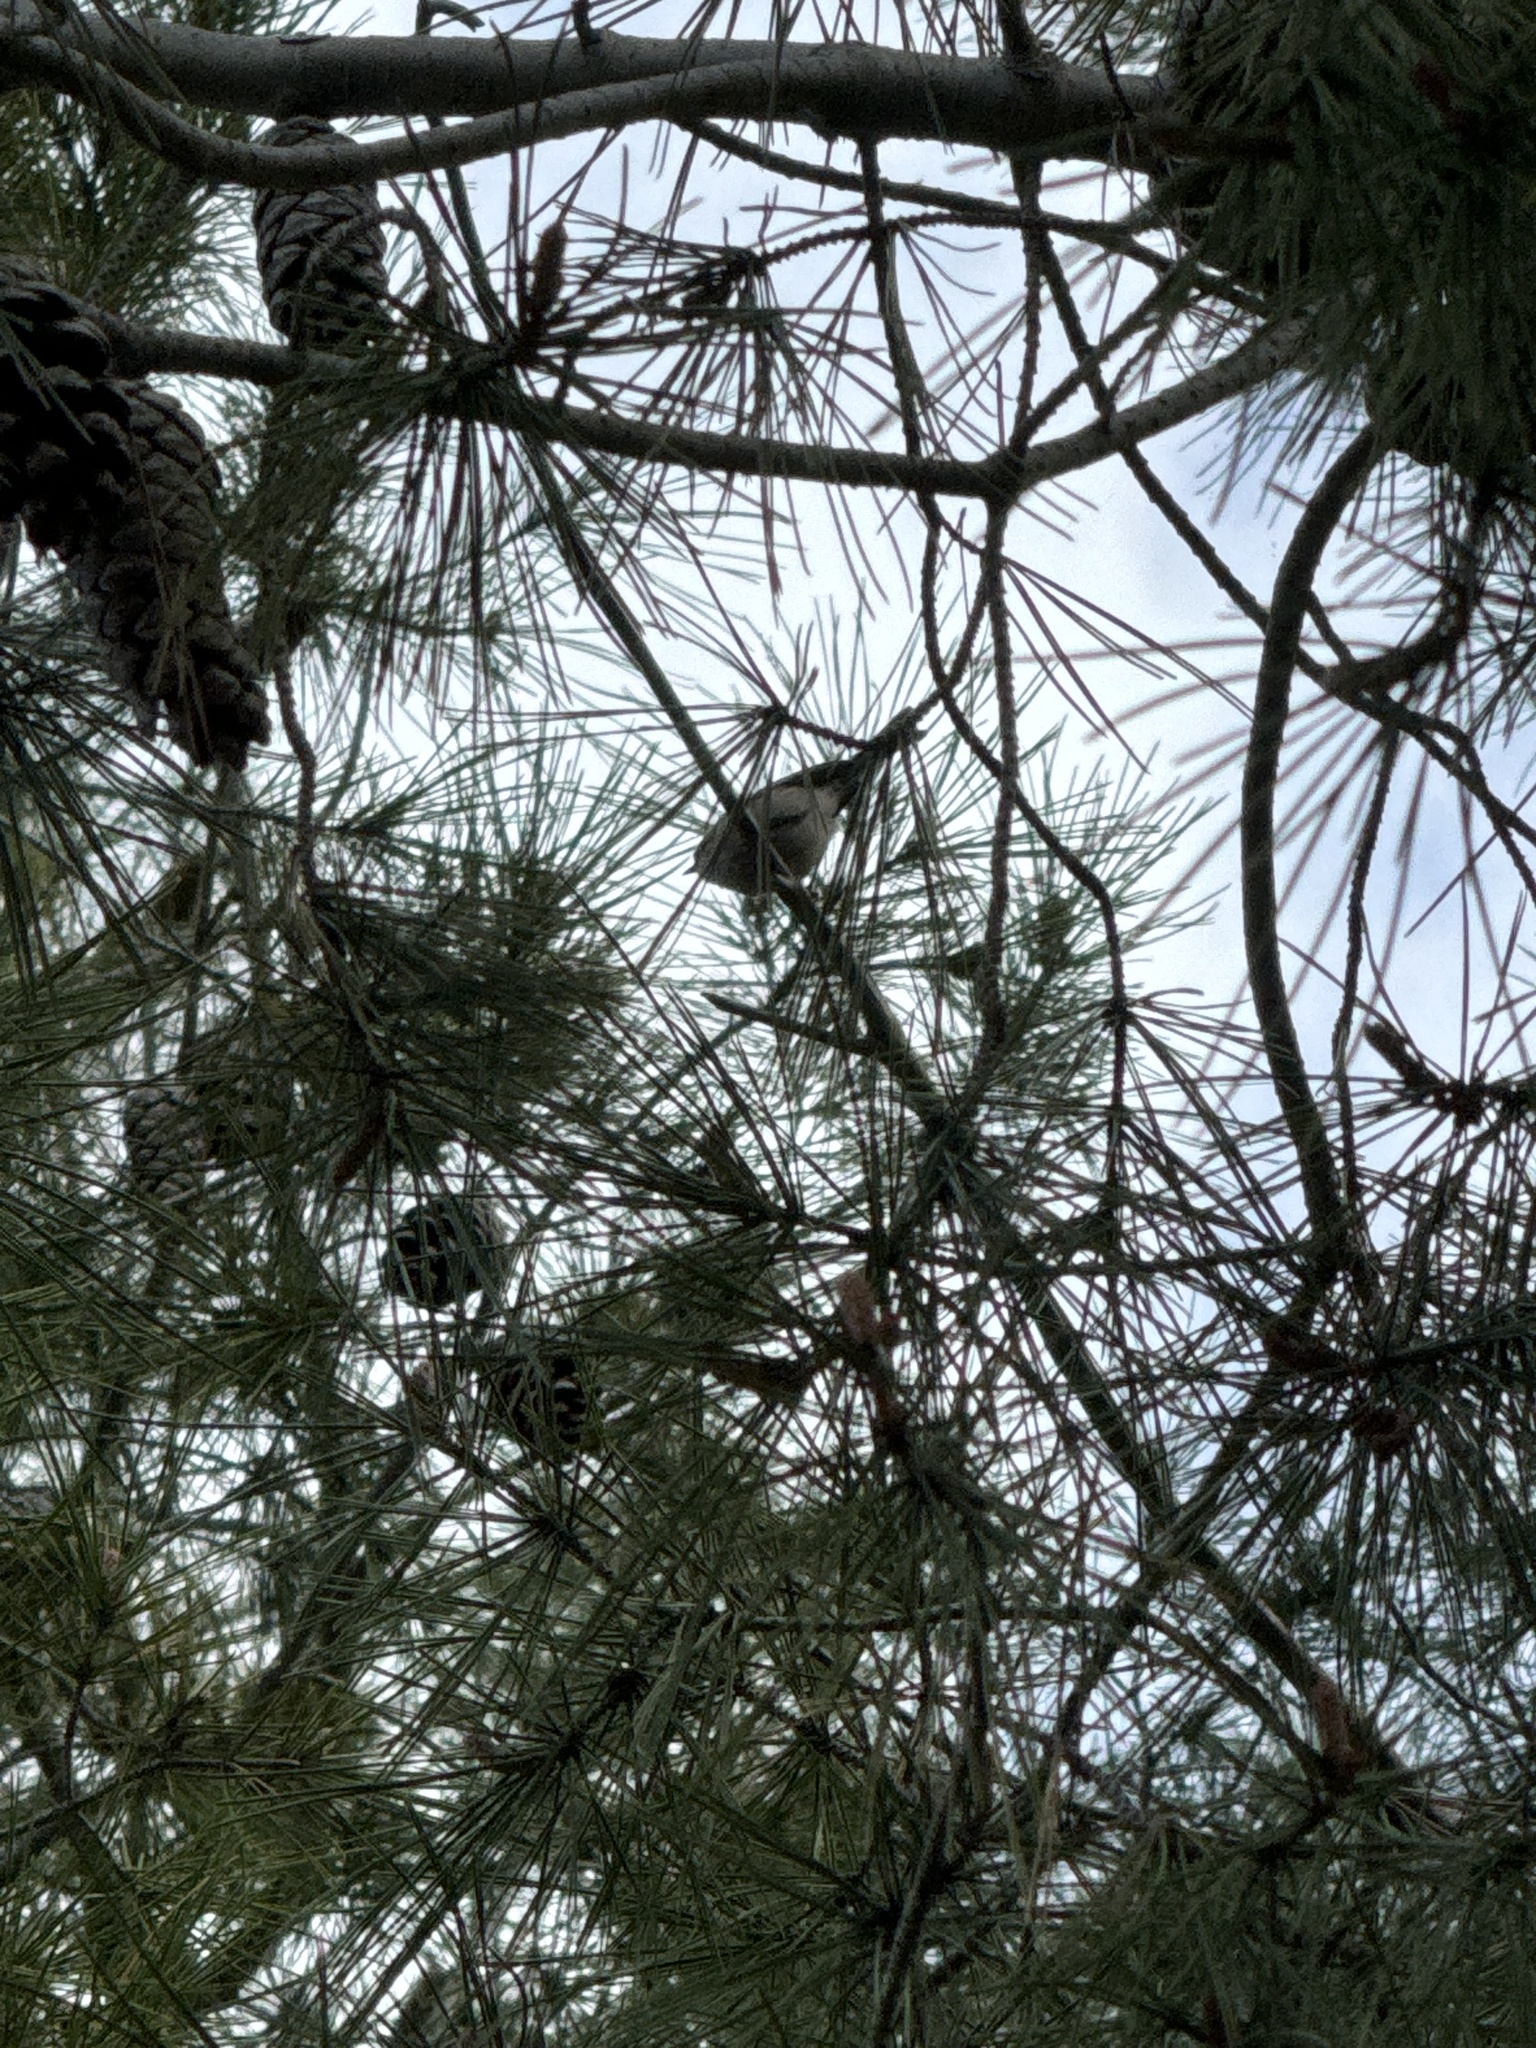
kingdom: Animalia
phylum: Chordata
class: Aves
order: Passeriformes
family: Aegithalidae
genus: Psaltriparus
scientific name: Psaltriparus minimus
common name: American bushtit
